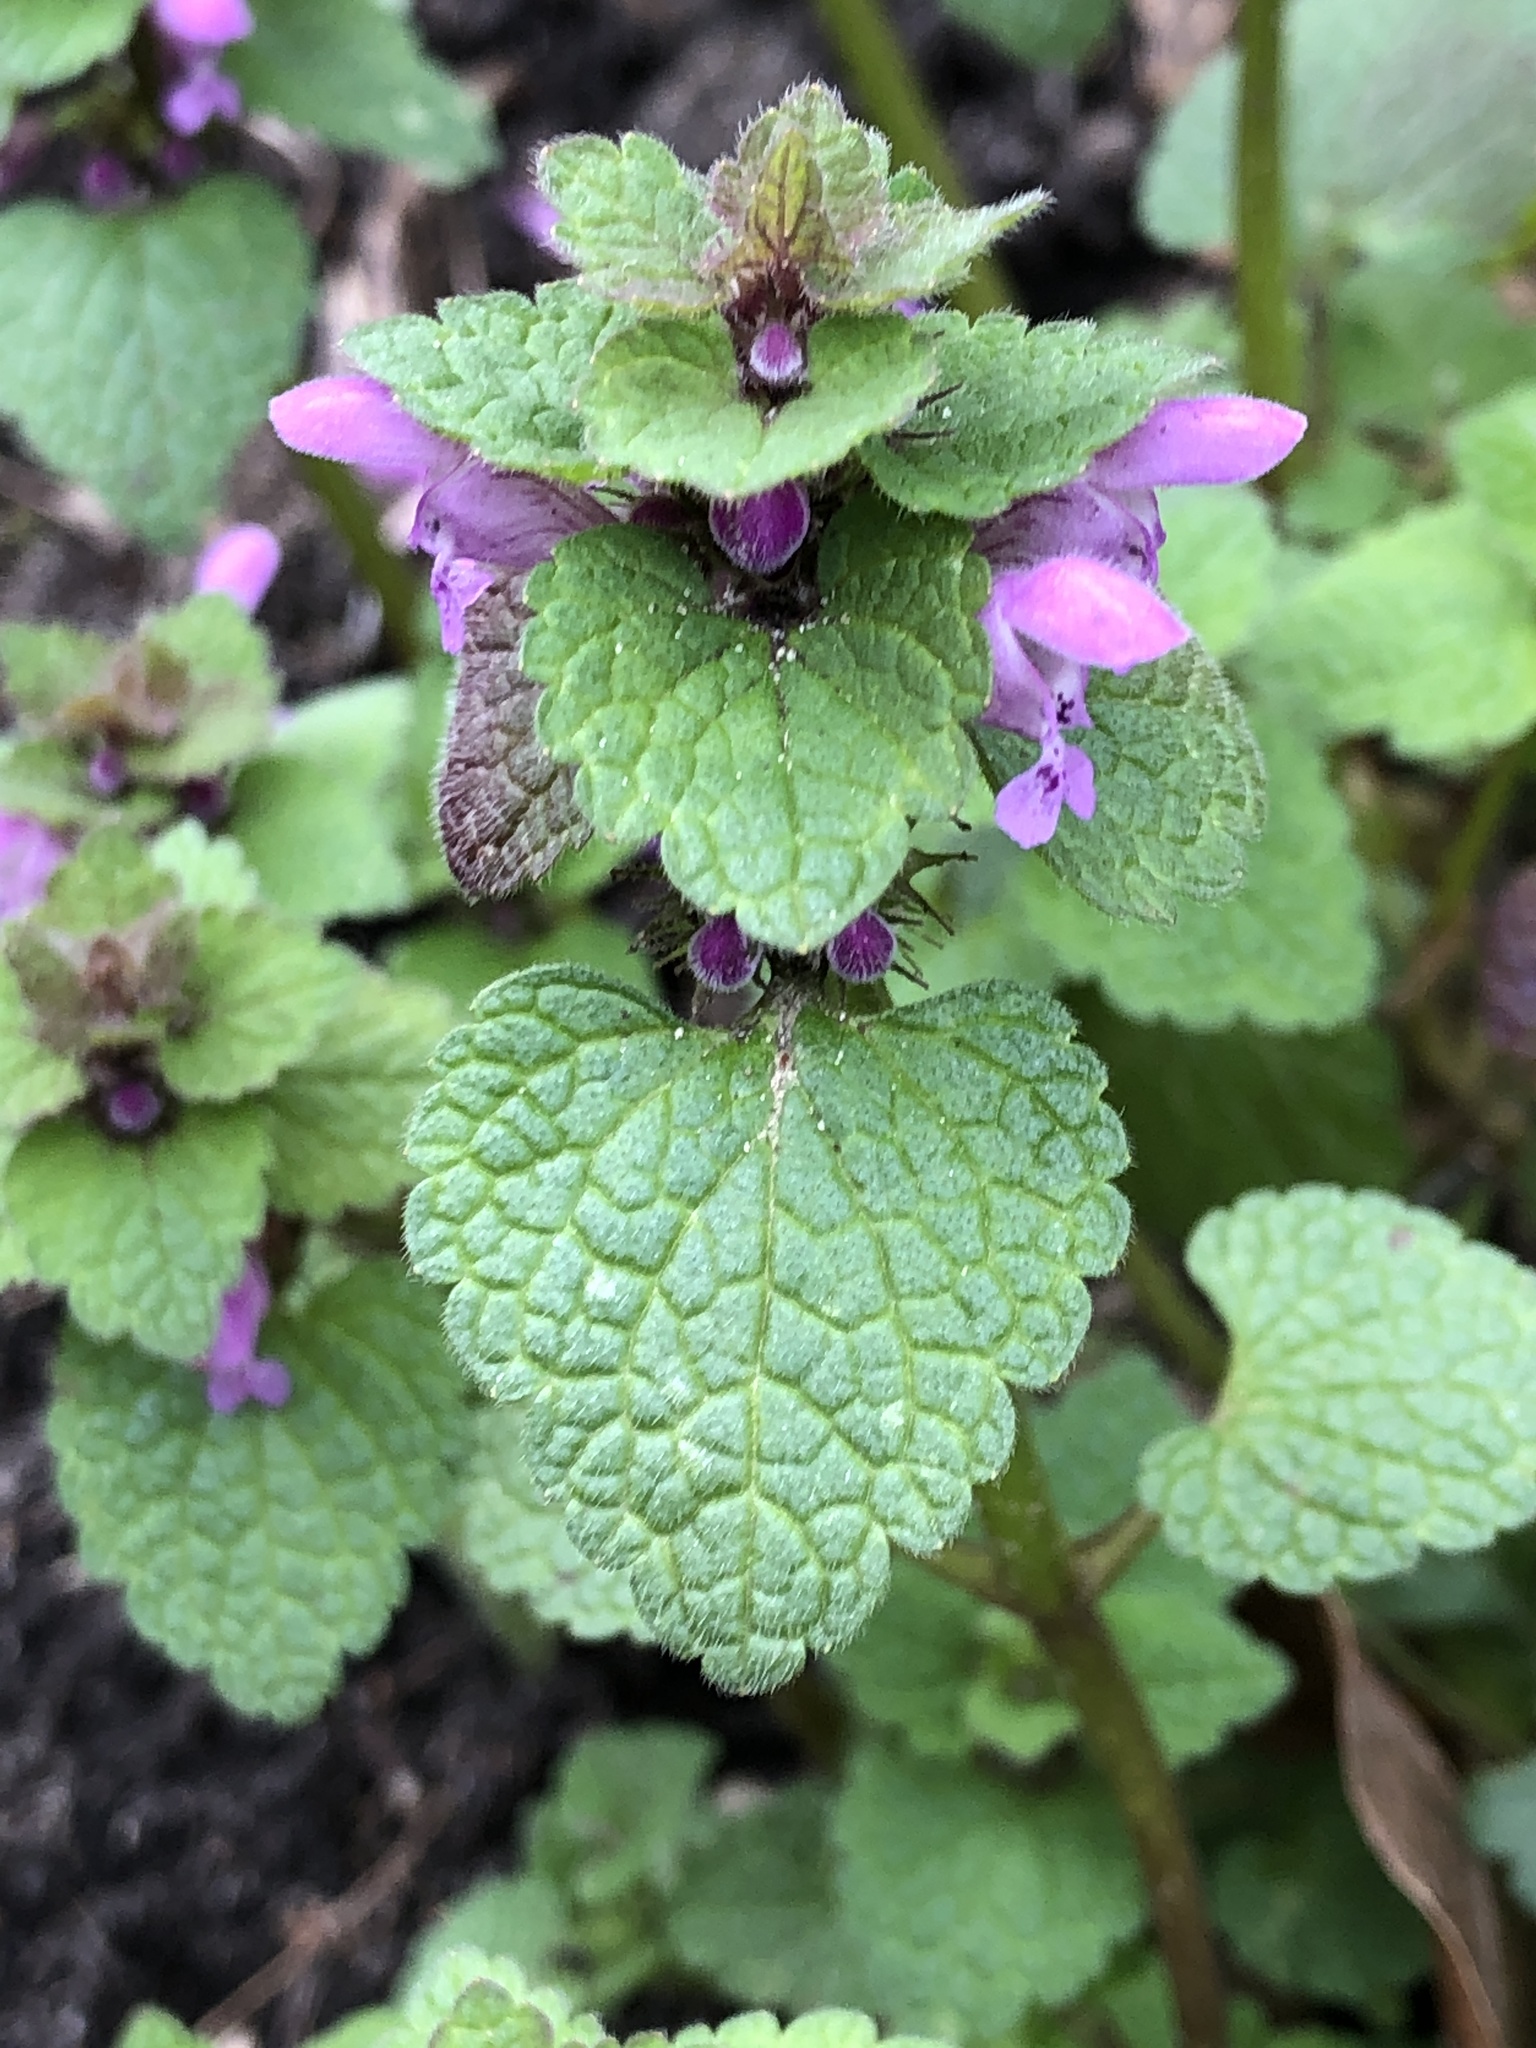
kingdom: Plantae
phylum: Tracheophyta
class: Magnoliopsida
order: Lamiales
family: Lamiaceae
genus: Lamium
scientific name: Lamium purpureum
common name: Red dead-nettle
